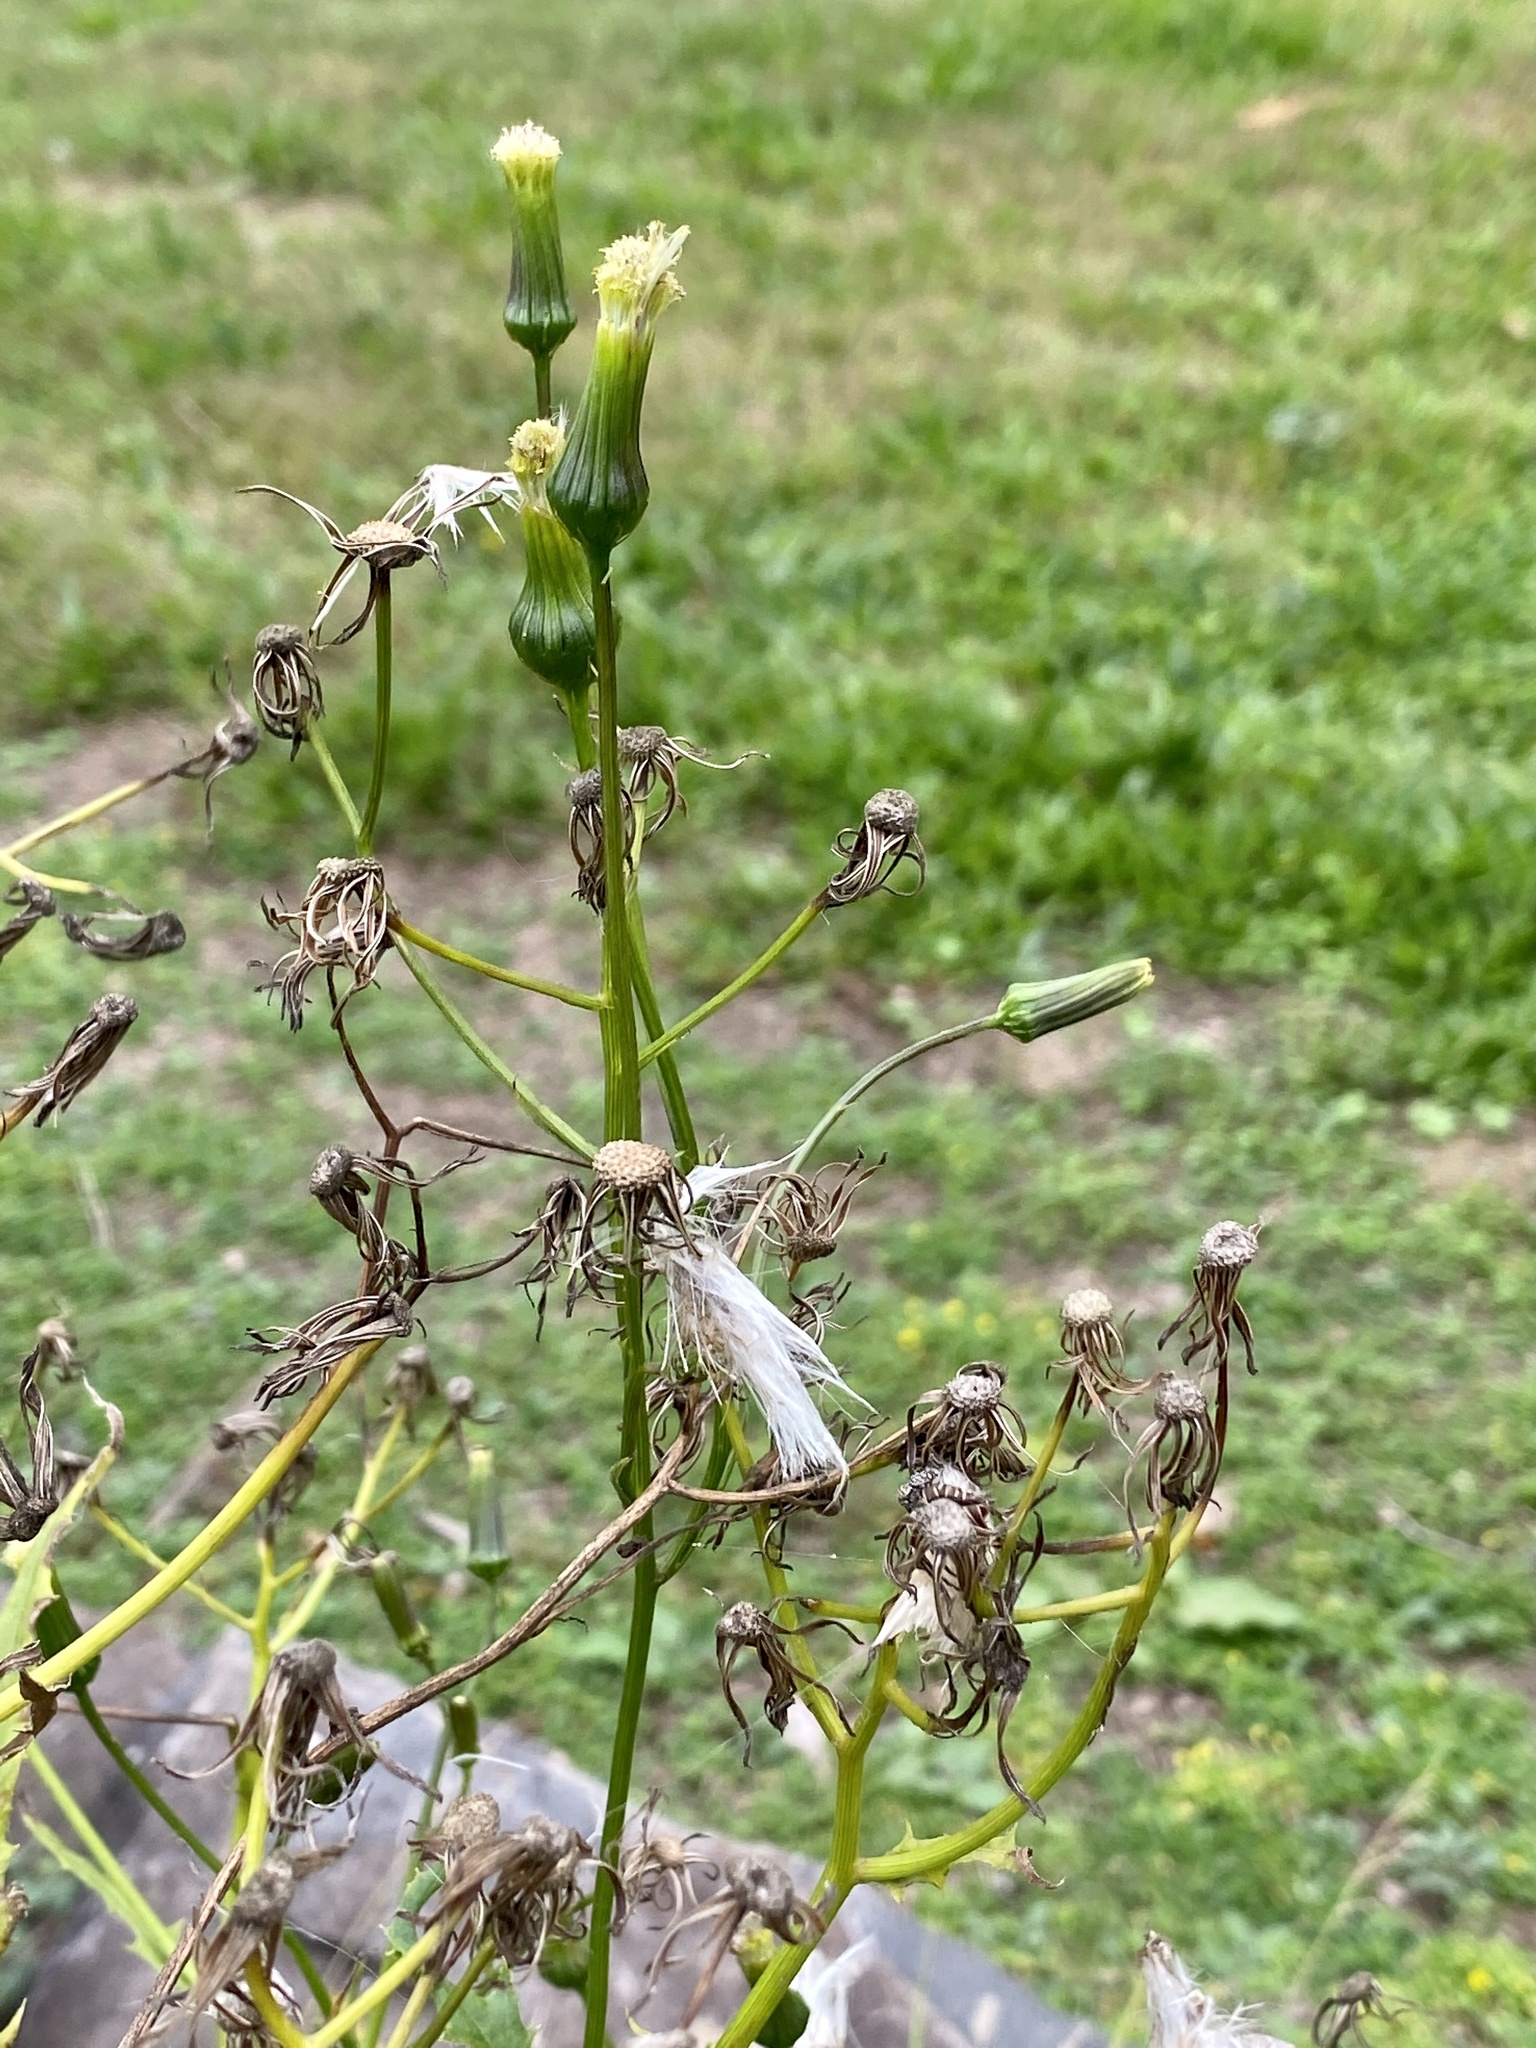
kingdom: Plantae
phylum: Tracheophyta
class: Magnoliopsida
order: Asterales
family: Asteraceae
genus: Erechtites
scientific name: Erechtites hieraciifolius
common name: American burnweed
